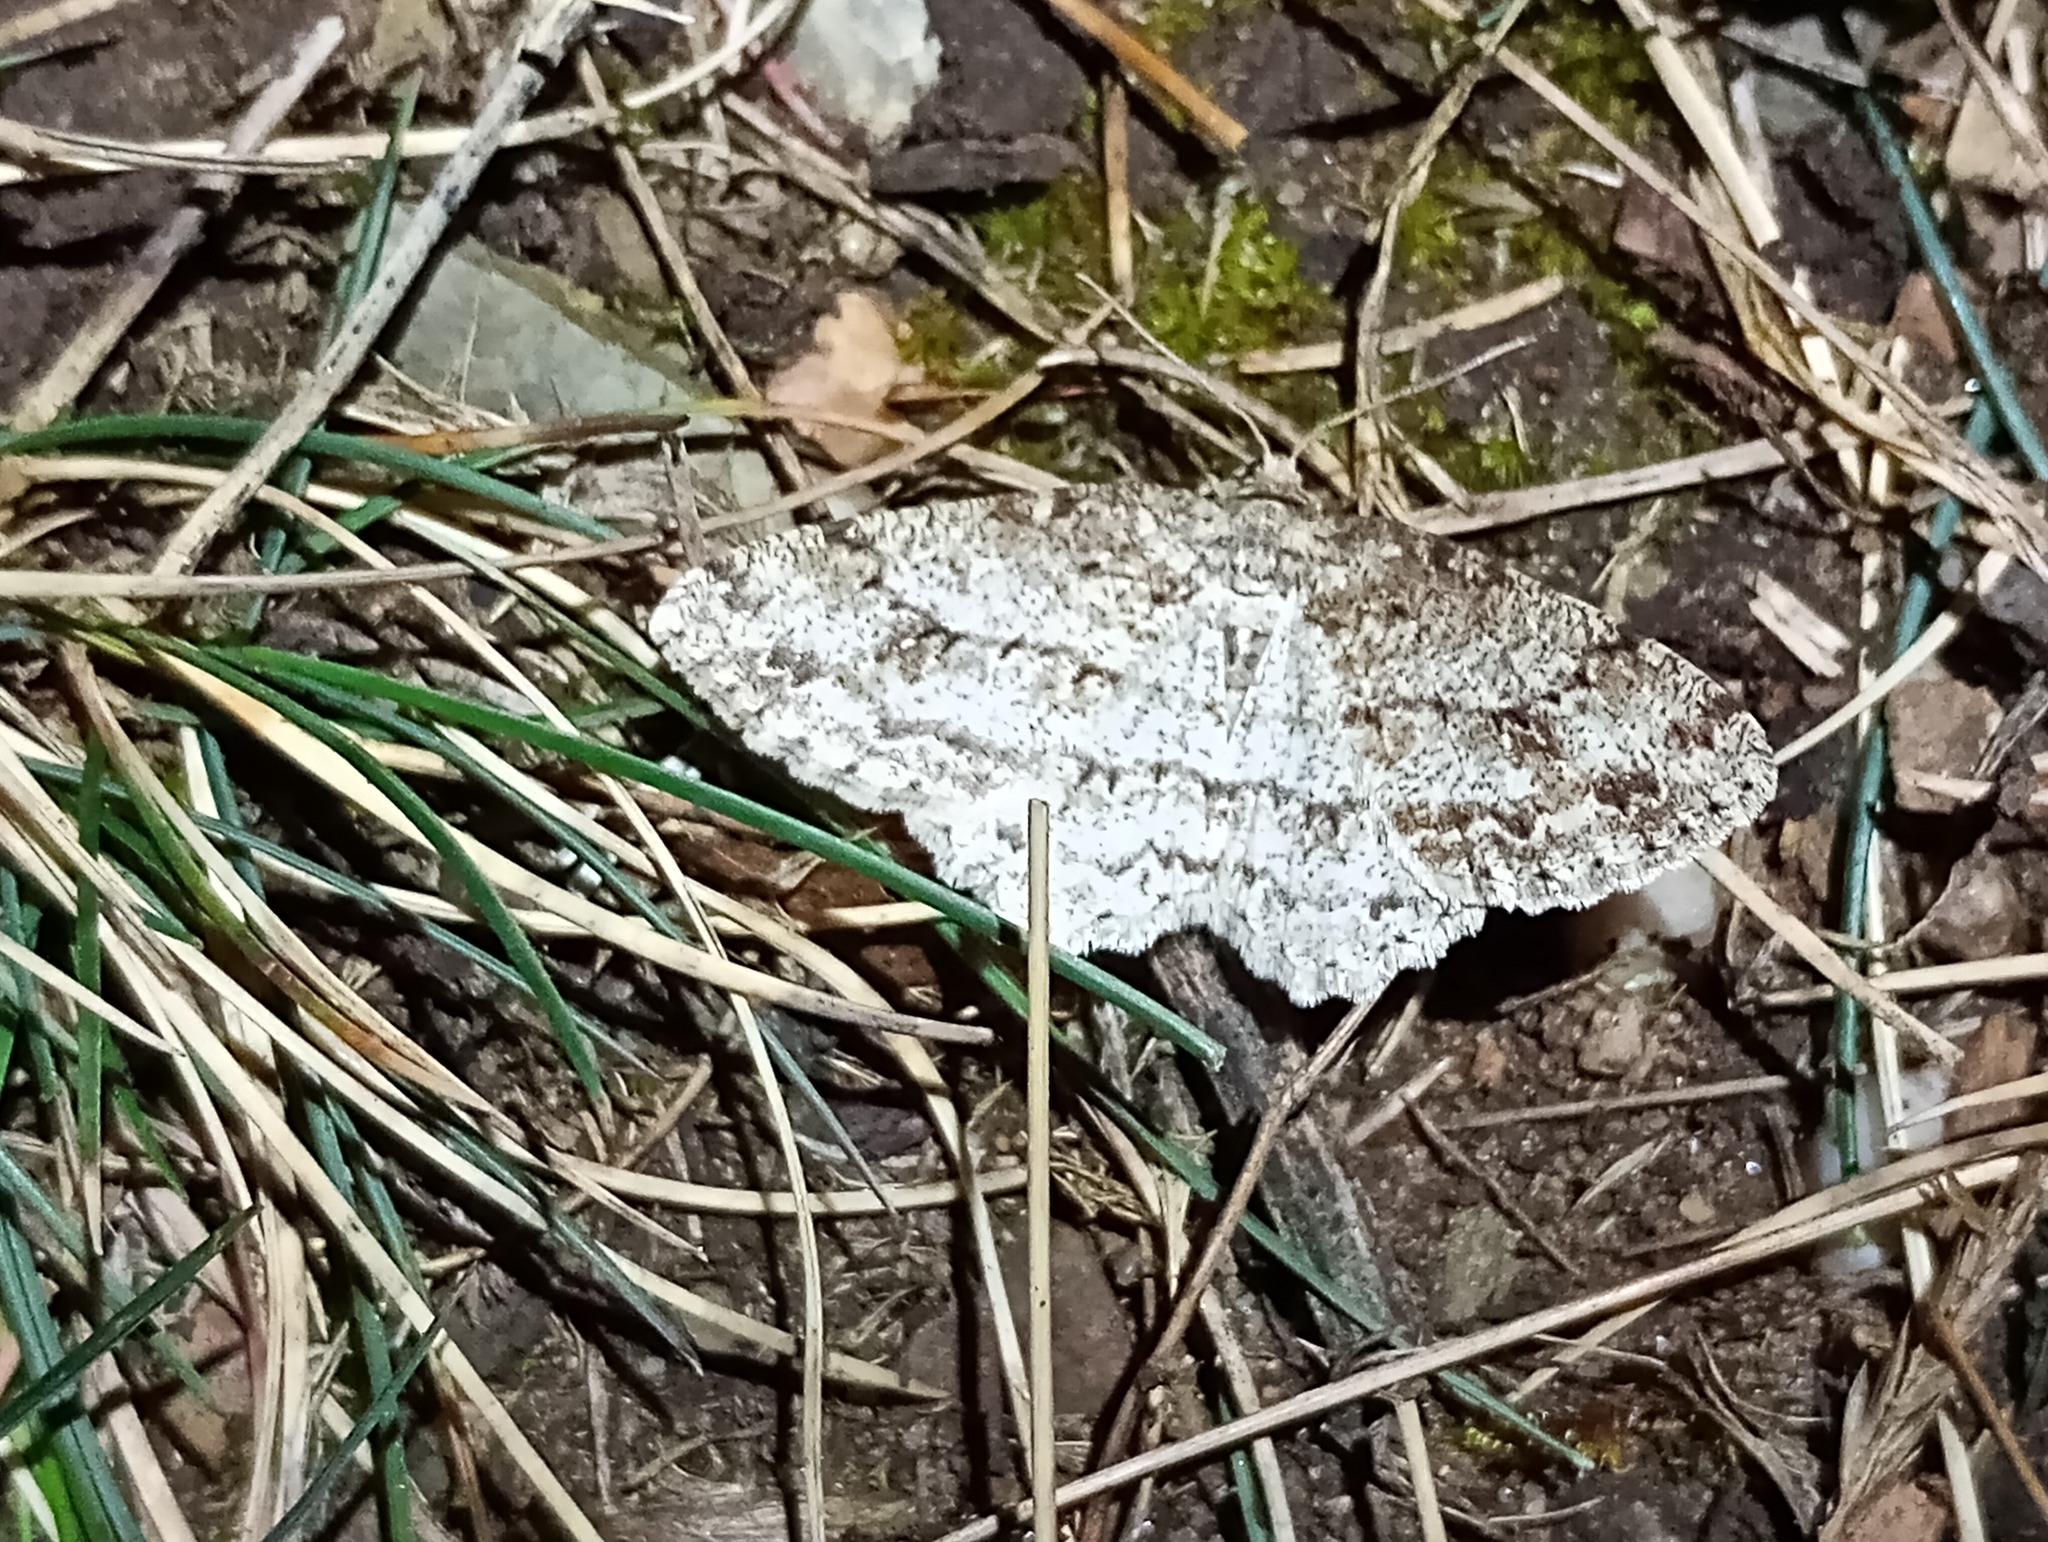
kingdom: Animalia
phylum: Arthropoda
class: Insecta
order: Lepidoptera
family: Geometridae
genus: Ectropis
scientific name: Ectropis crepuscularia
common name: Engrailed
